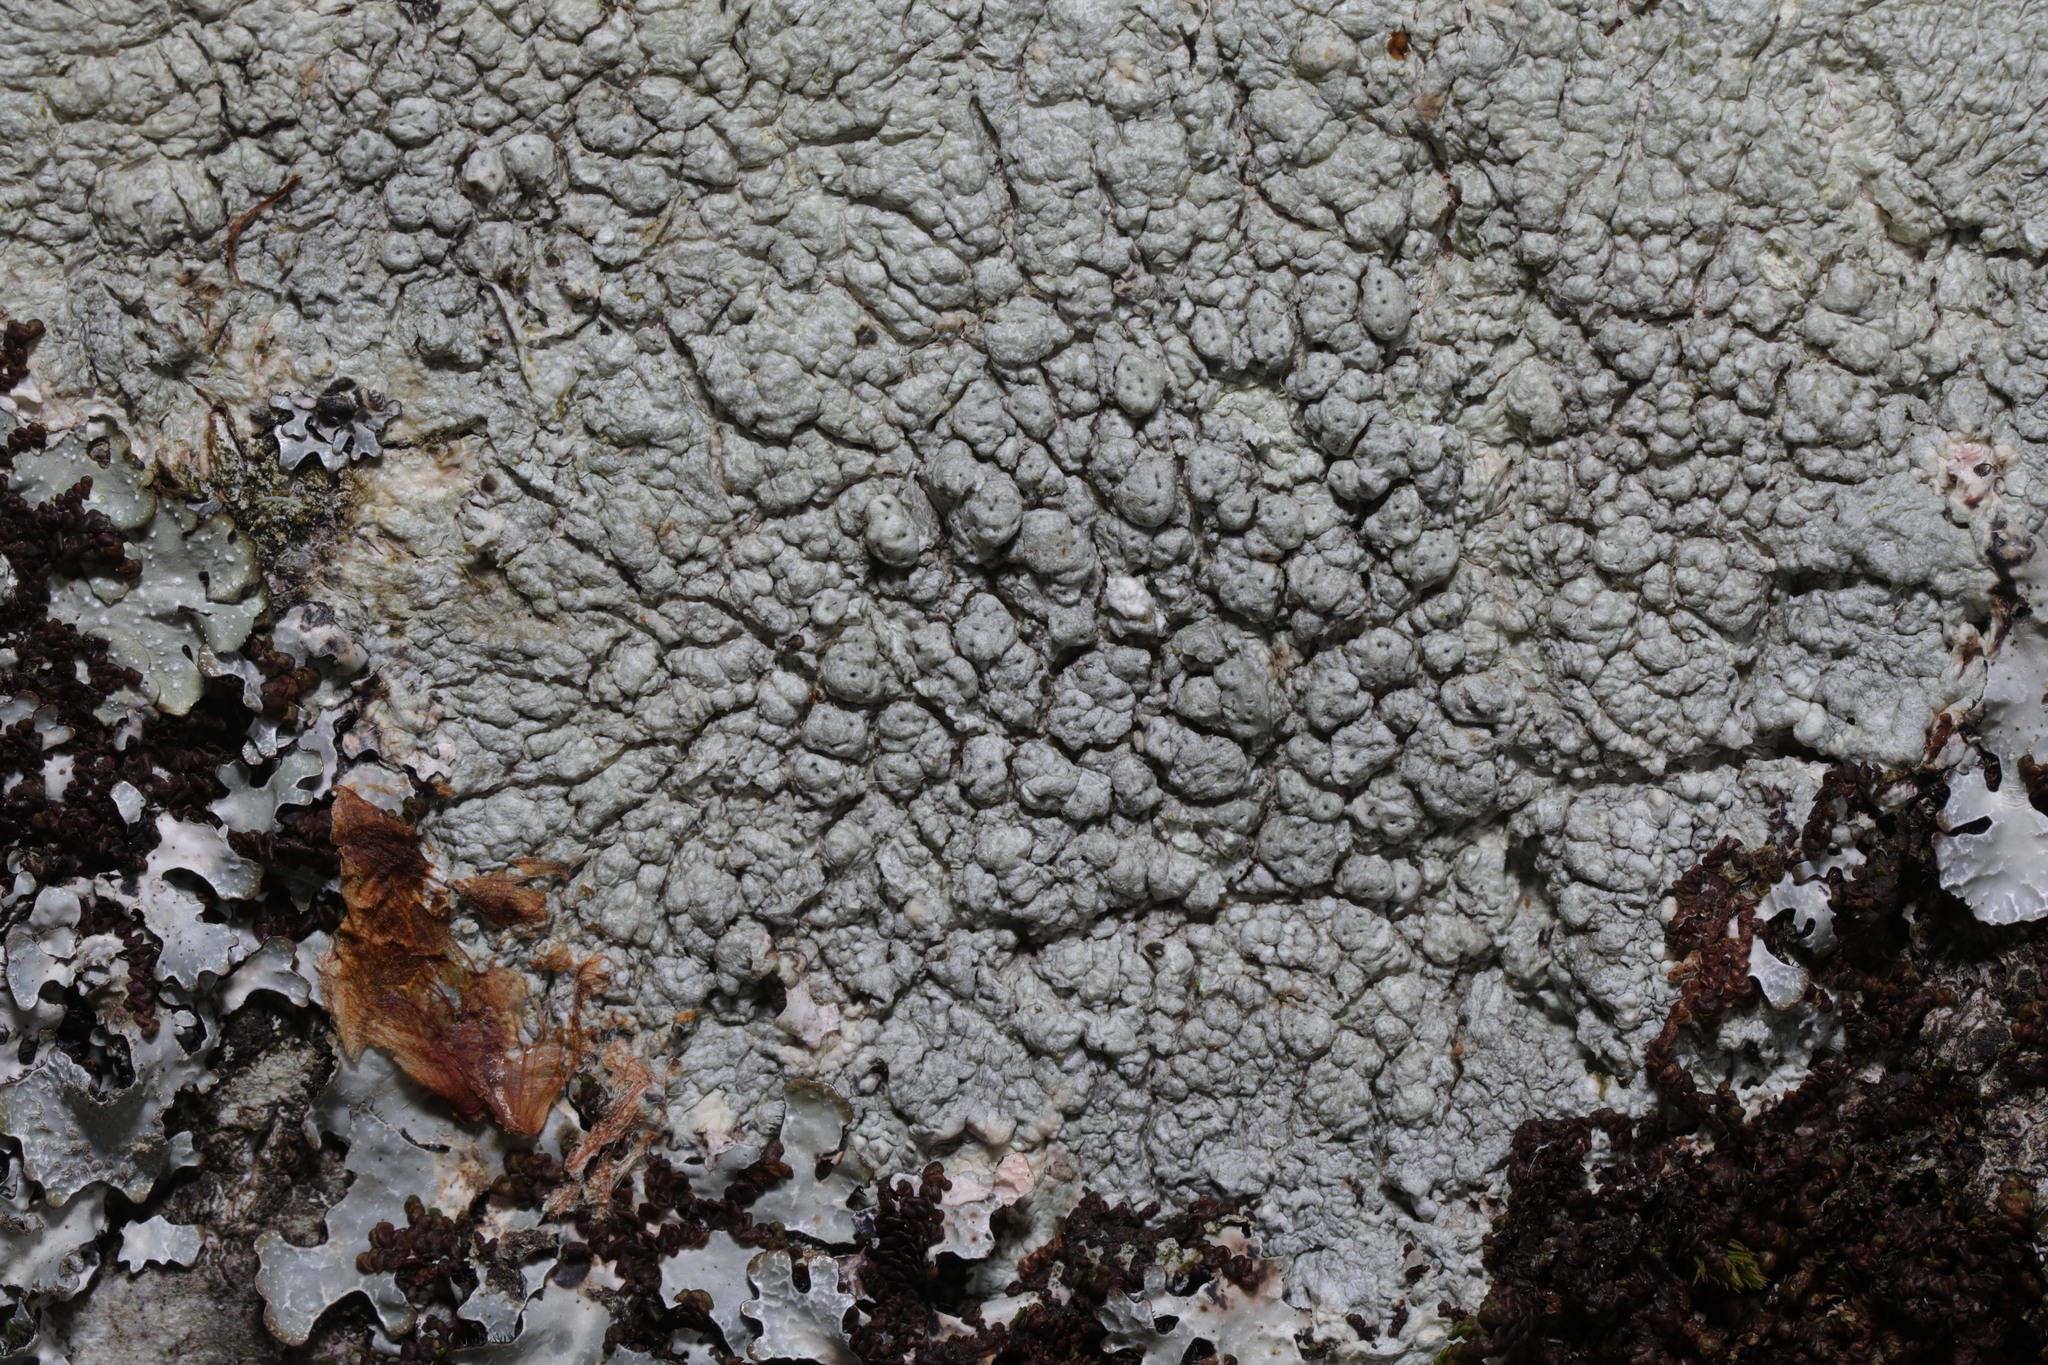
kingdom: Fungi
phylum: Ascomycota
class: Lecanoromycetes
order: Pertusariales
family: Pertusariaceae
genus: Pertusaria
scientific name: Pertusaria pertusa
